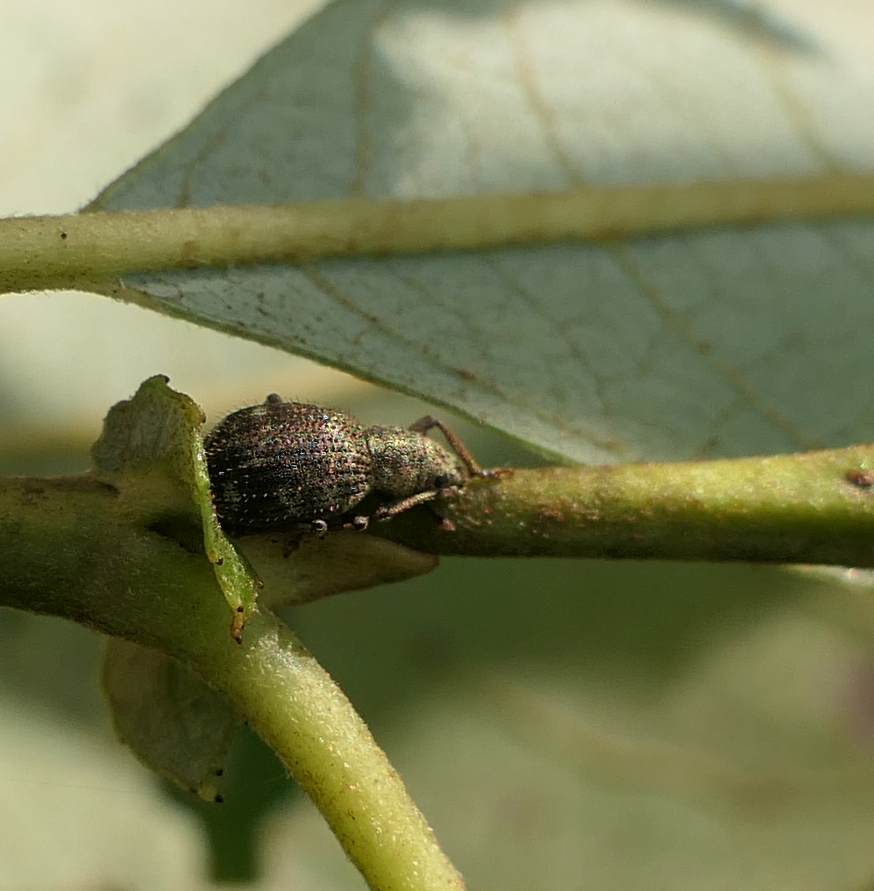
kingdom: Animalia
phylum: Arthropoda
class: Insecta
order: Coleoptera
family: Curculionidae
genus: Sciaphilus
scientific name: Sciaphilus asperatus
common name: Weevil
